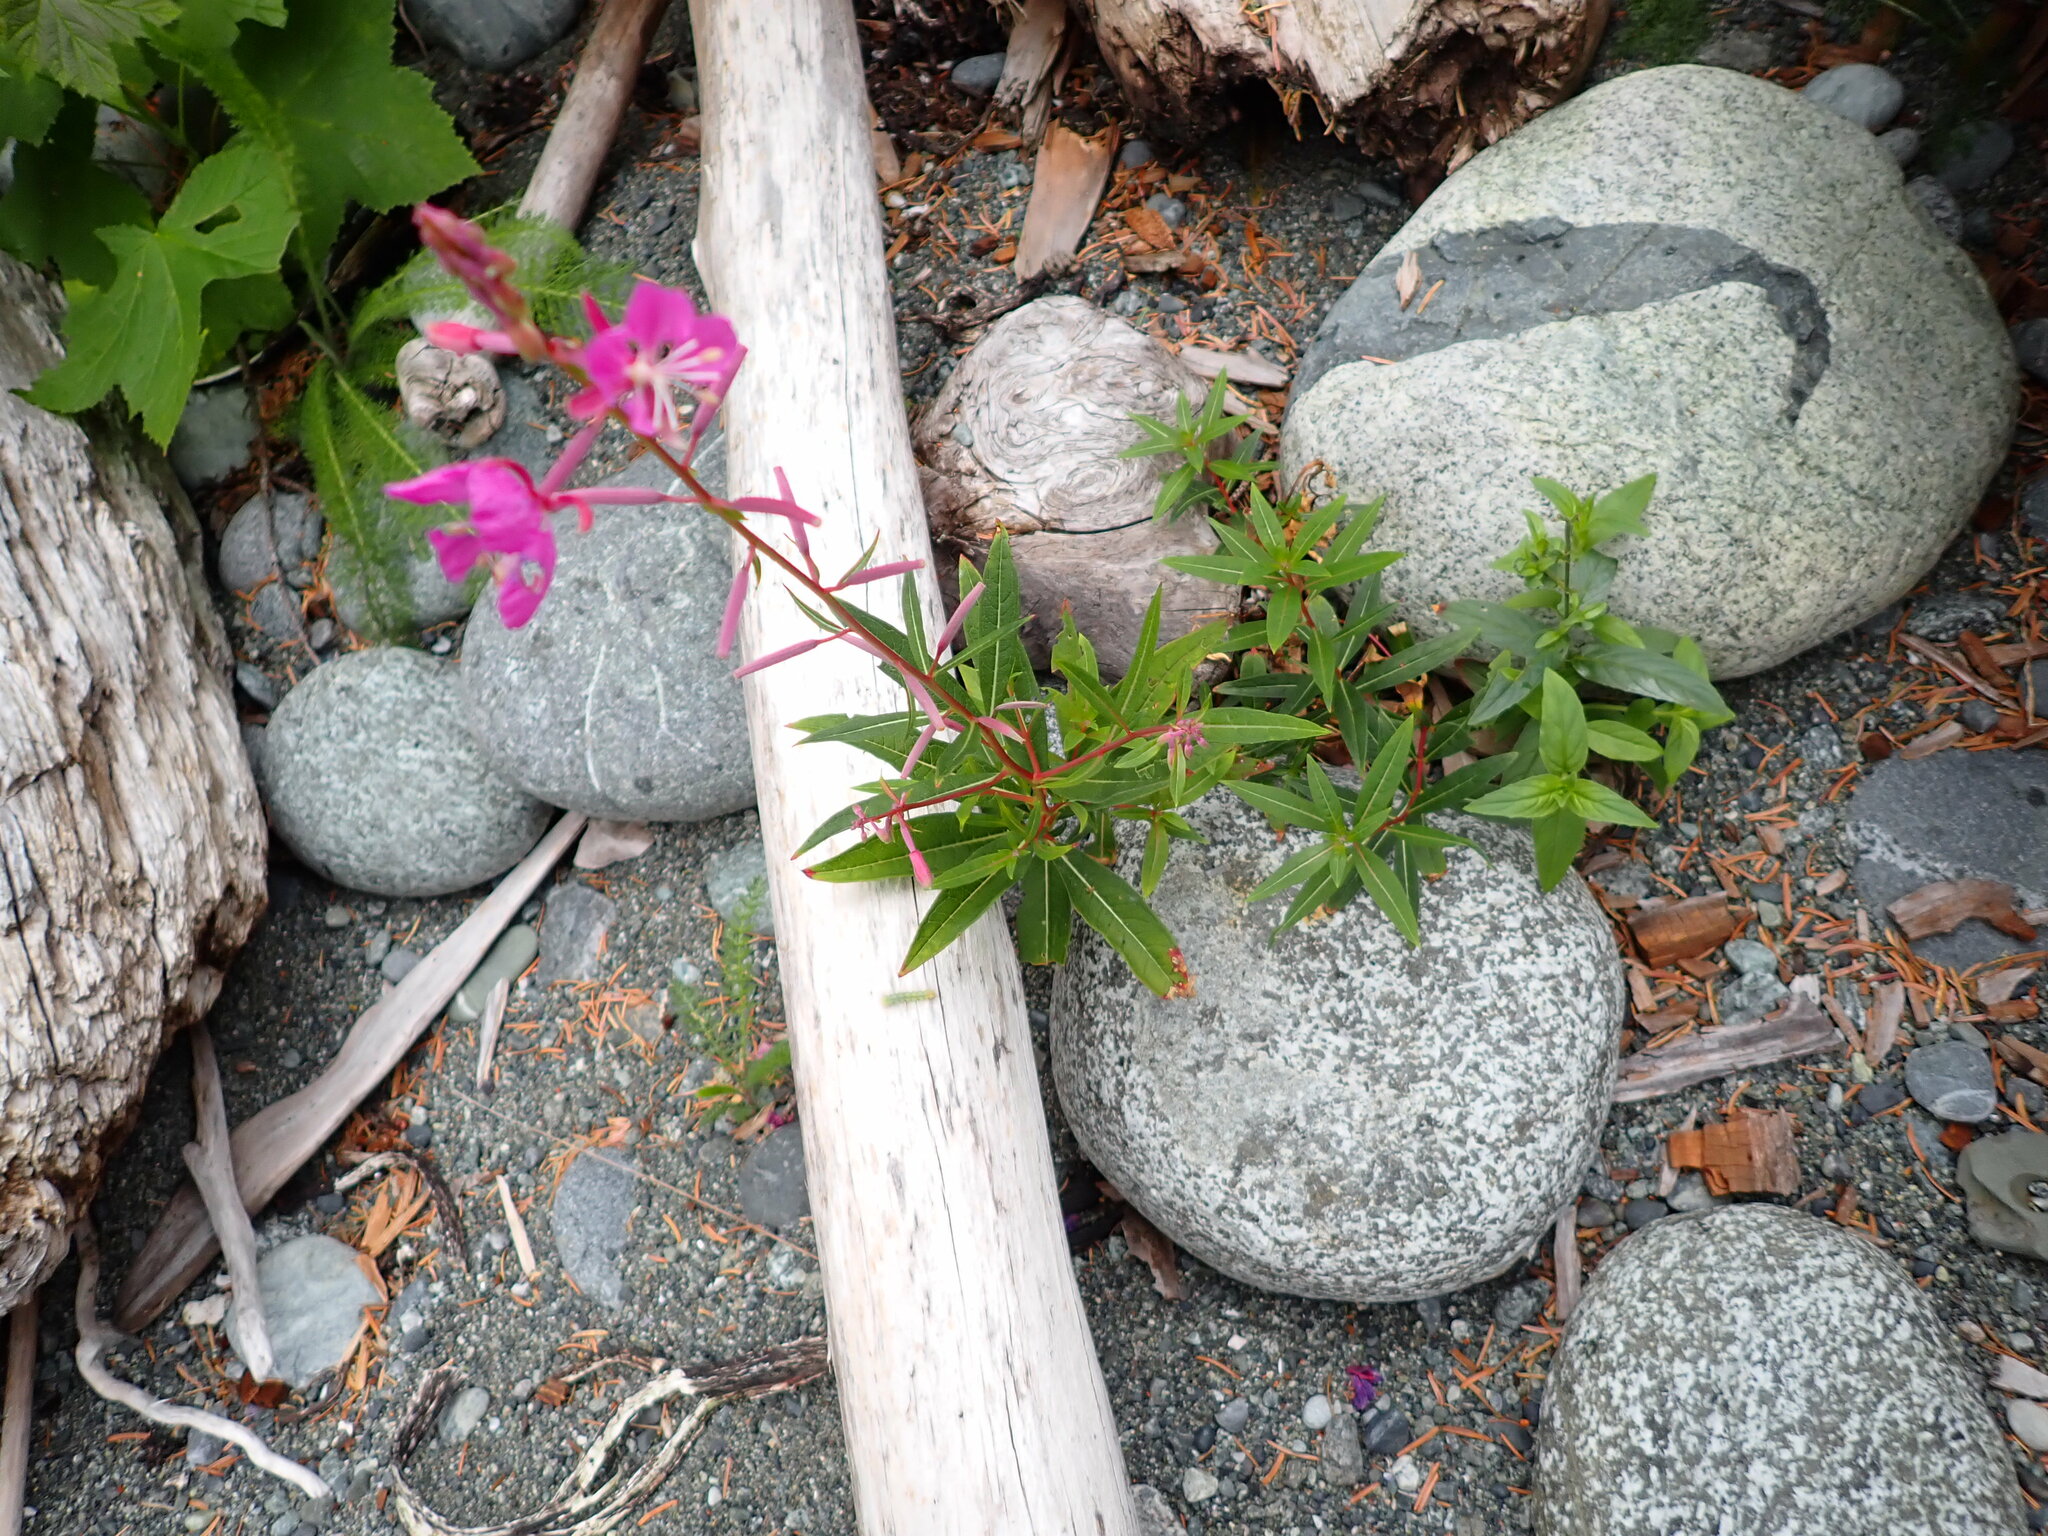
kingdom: Plantae
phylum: Tracheophyta
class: Magnoliopsida
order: Myrtales
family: Onagraceae
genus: Chamaenerion
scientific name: Chamaenerion angustifolium
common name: Fireweed
